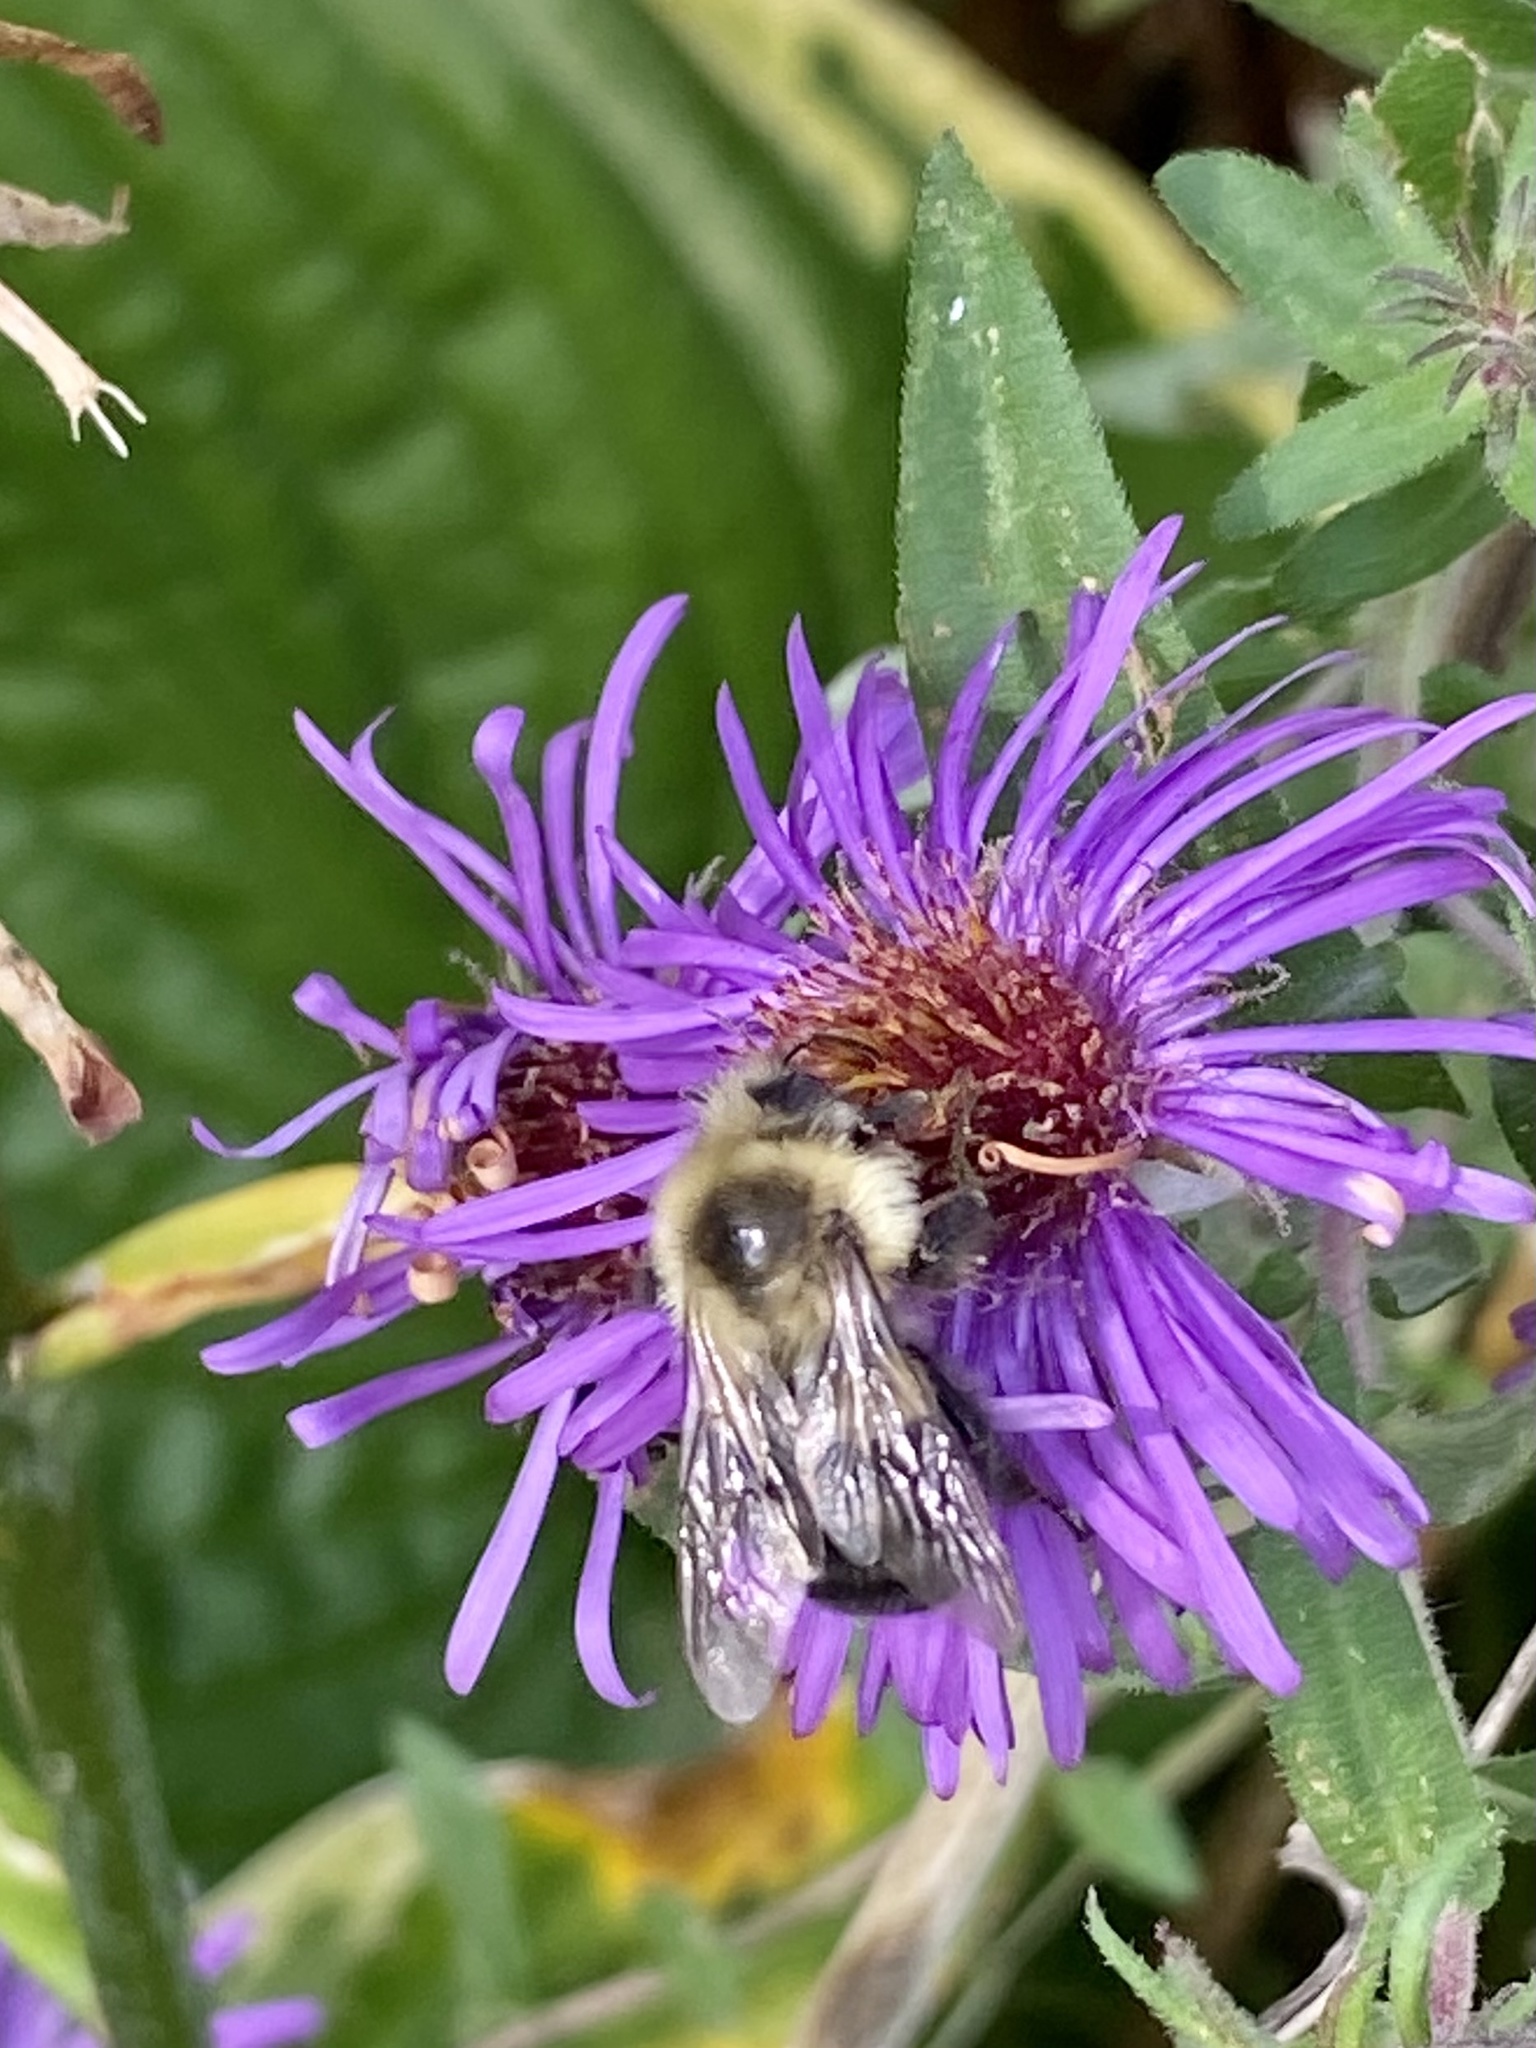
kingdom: Animalia
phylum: Arthropoda
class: Insecta
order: Hymenoptera
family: Apidae
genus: Bombus
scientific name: Bombus impatiens
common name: Common eastern bumble bee
